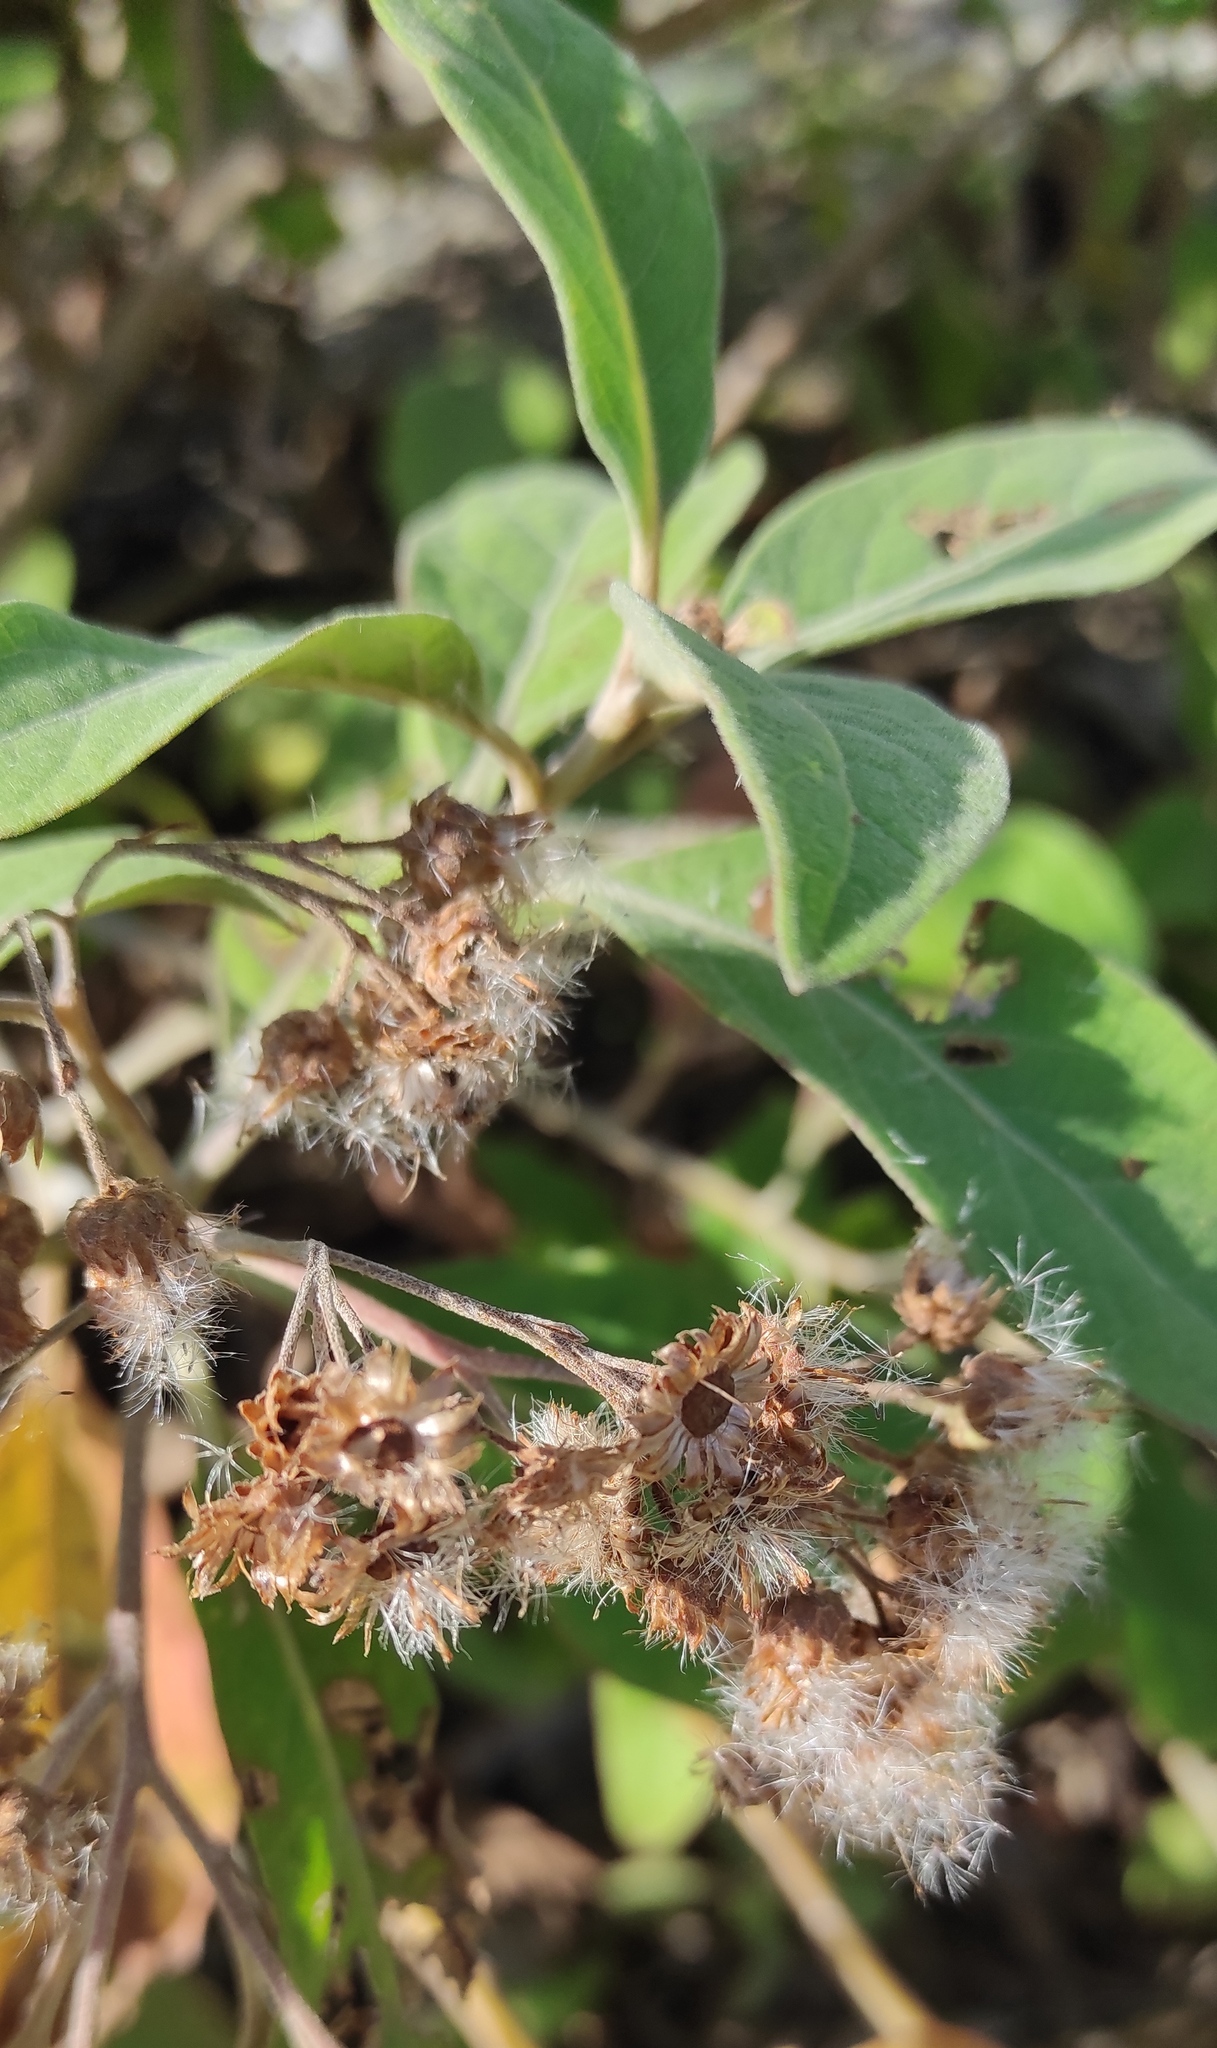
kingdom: Plantae
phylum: Tracheophyta
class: Magnoliopsida
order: Asterales
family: Asteraceae
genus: Pluchea
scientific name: Pluchea carolinensis
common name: Marsh fleabane
